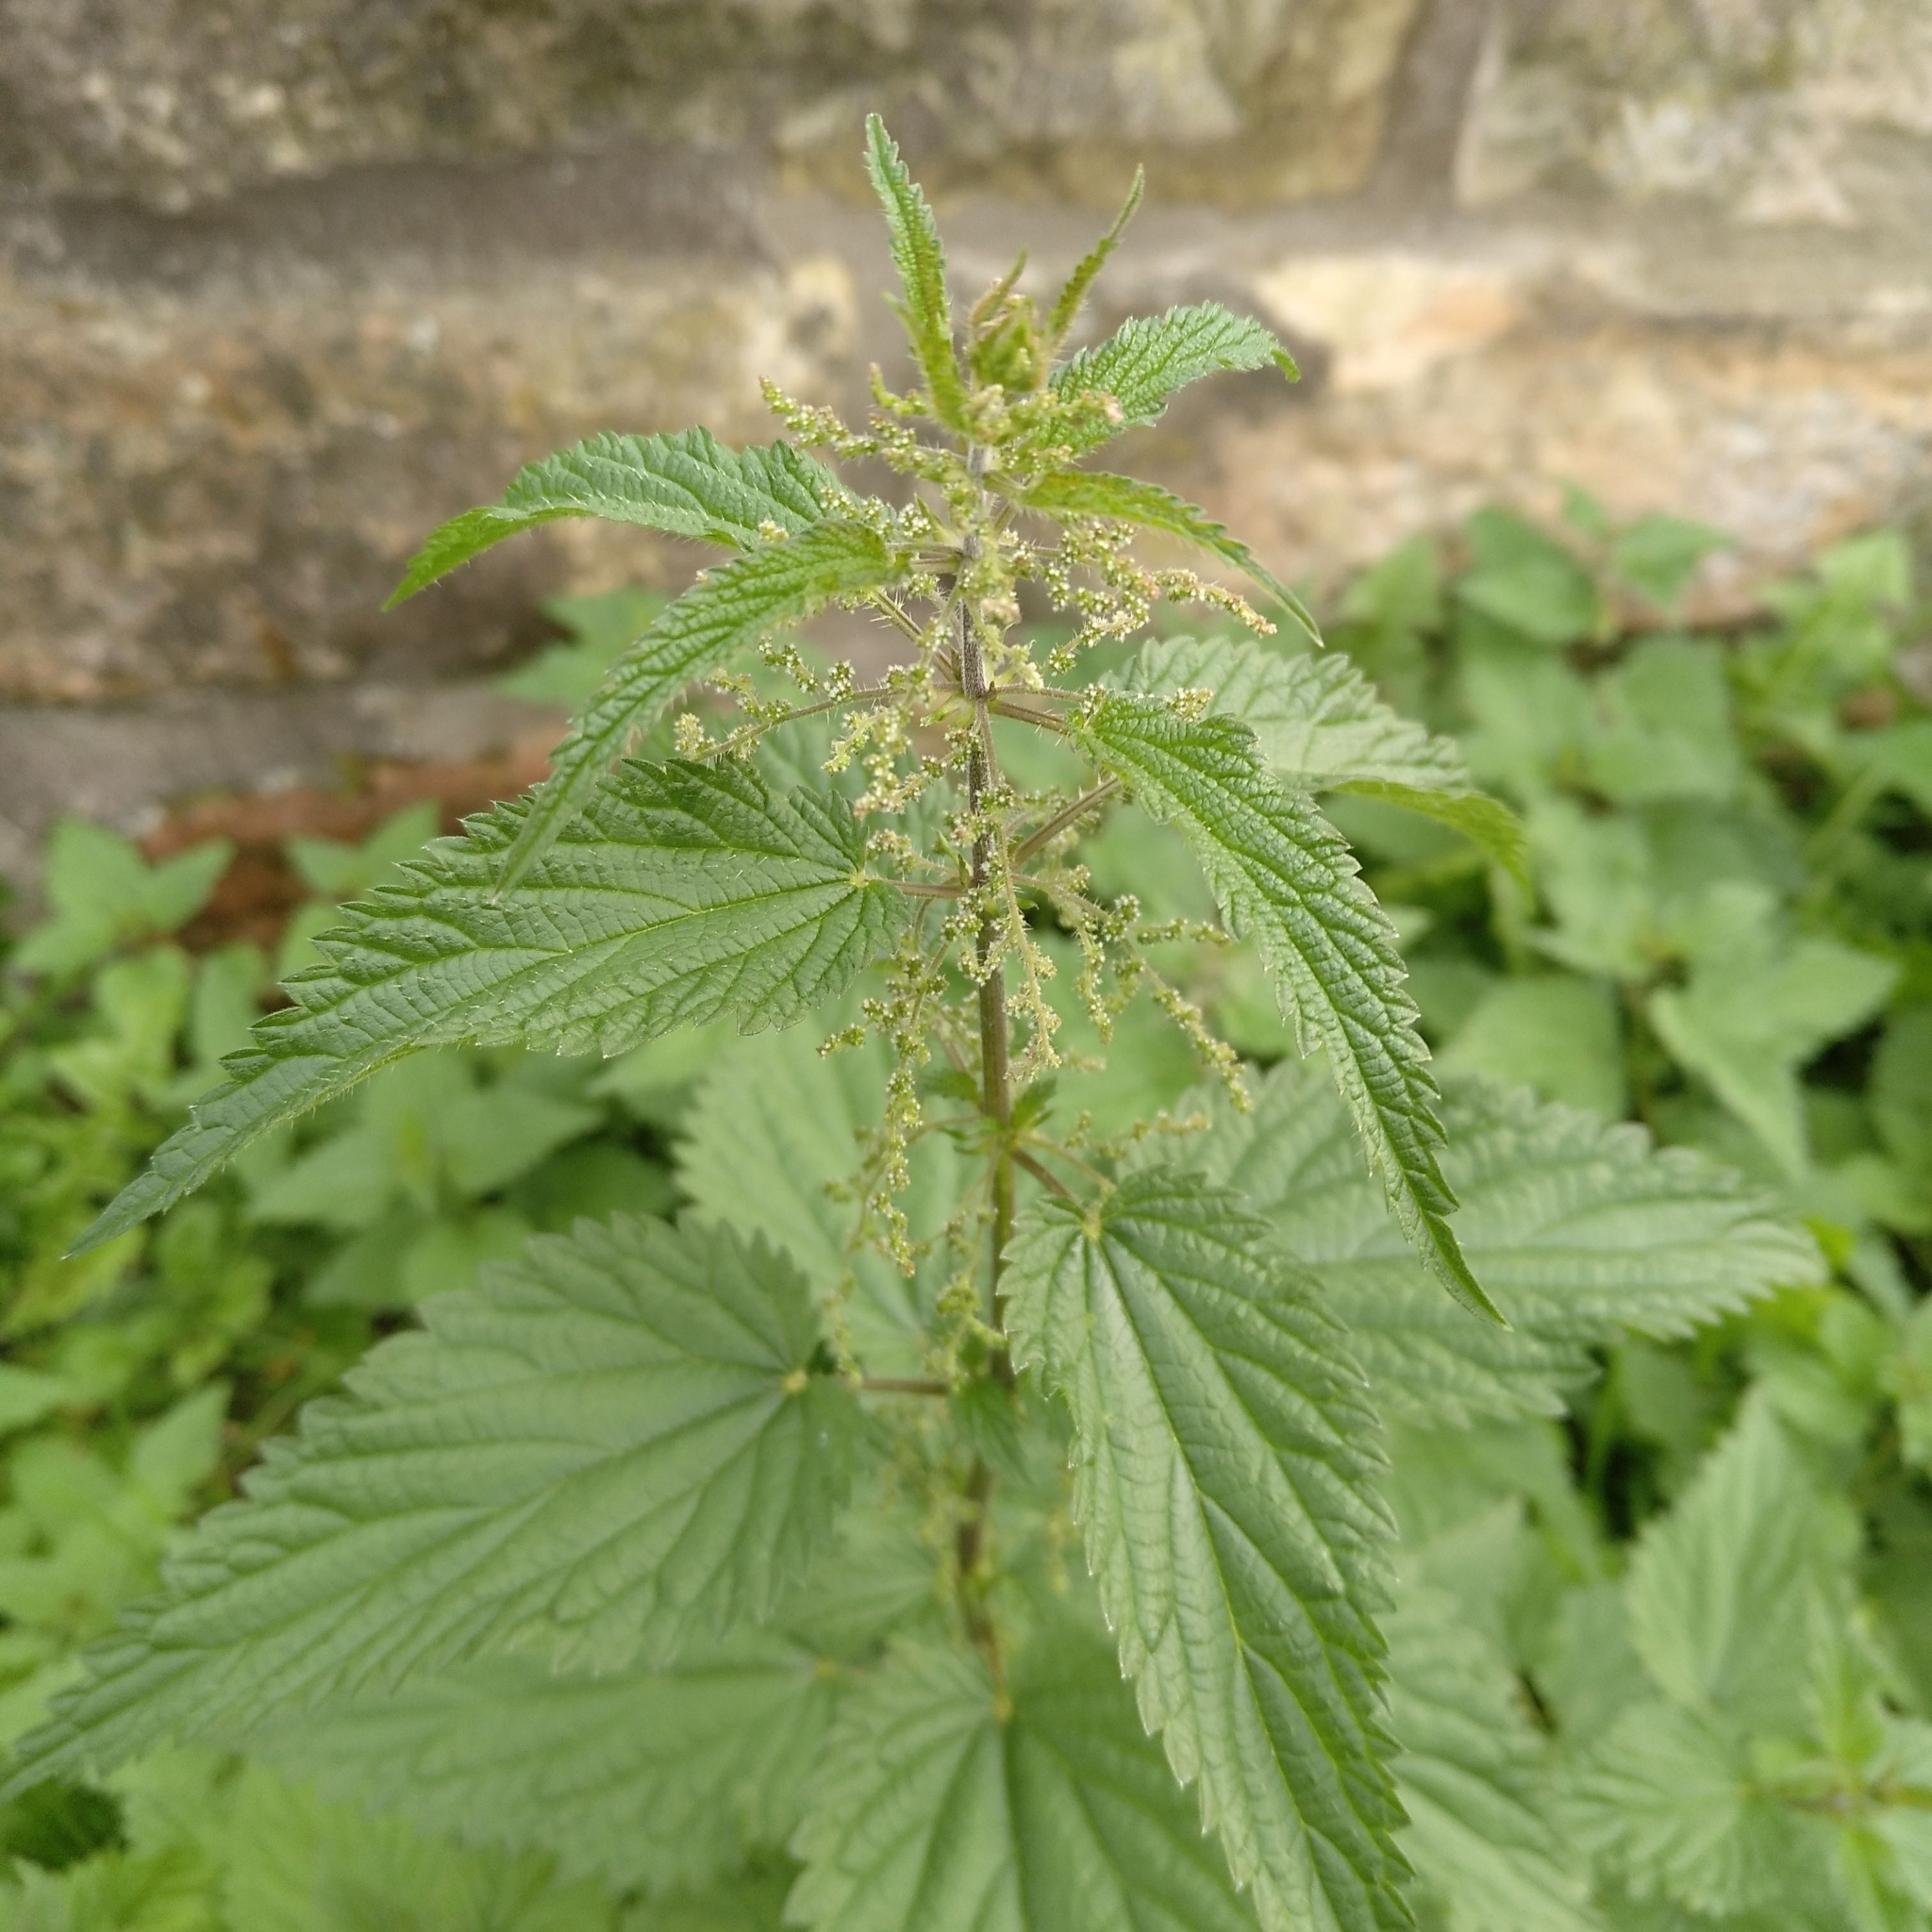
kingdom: Plantae
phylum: Tracheophyta
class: Magnoliopsida
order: Rosales
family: Urticaceae
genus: Urtica
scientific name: Urtica dioica
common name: Common nettle
